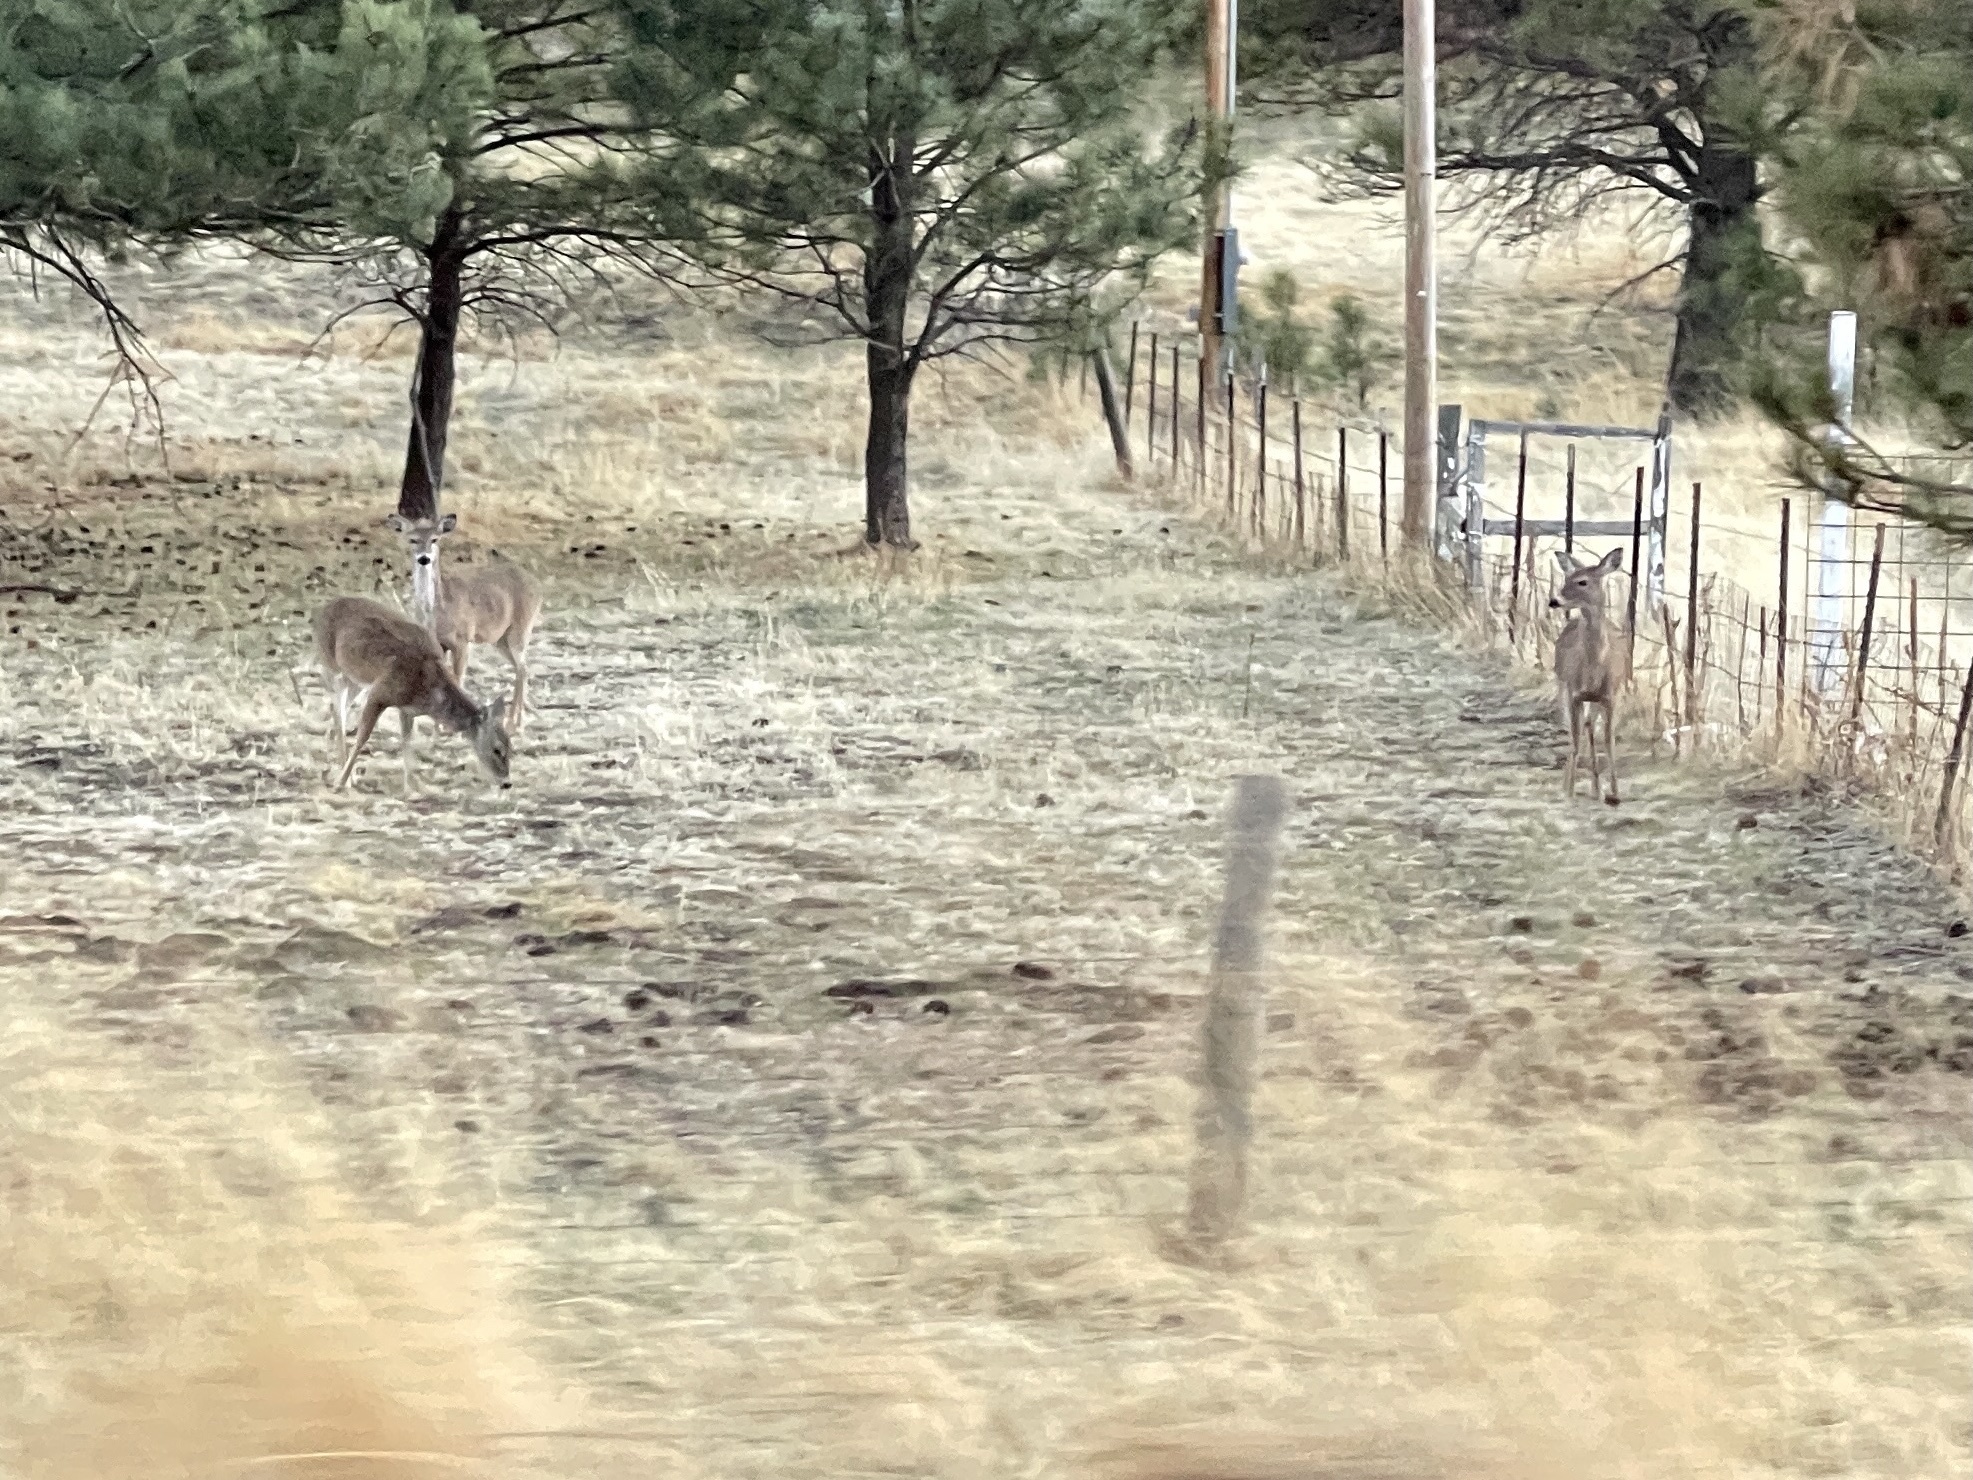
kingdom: Animalia
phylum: Chordata
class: Mammalia
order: Artiodactyla
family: Cervidae
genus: Odocoileus
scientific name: Odocoileus virginianus
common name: White-tailed deer
